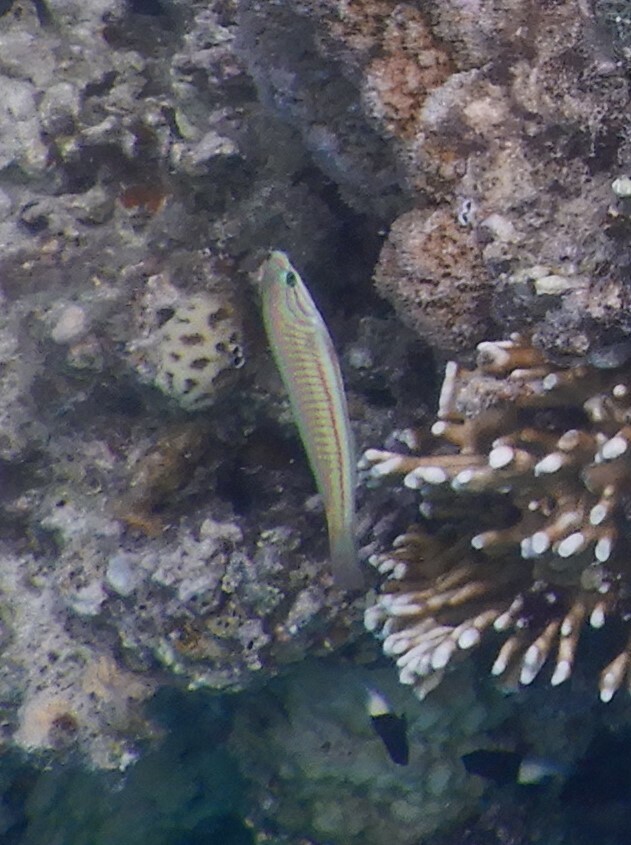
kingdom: Animalia
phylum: Chordata
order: Perciformes
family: Labridae
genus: Thalassoma
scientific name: Thalassoma rueppellii
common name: Klunzinger's wrasse
